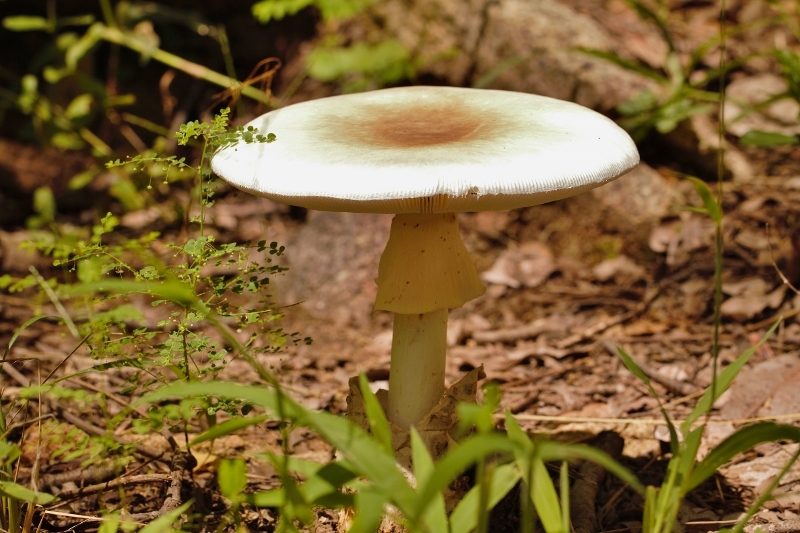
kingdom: Fungi
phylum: Basidiomycota
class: Agaricomycetes
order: Agaricales
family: Amanitaceae
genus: Amanita
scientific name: Amanita loosei
